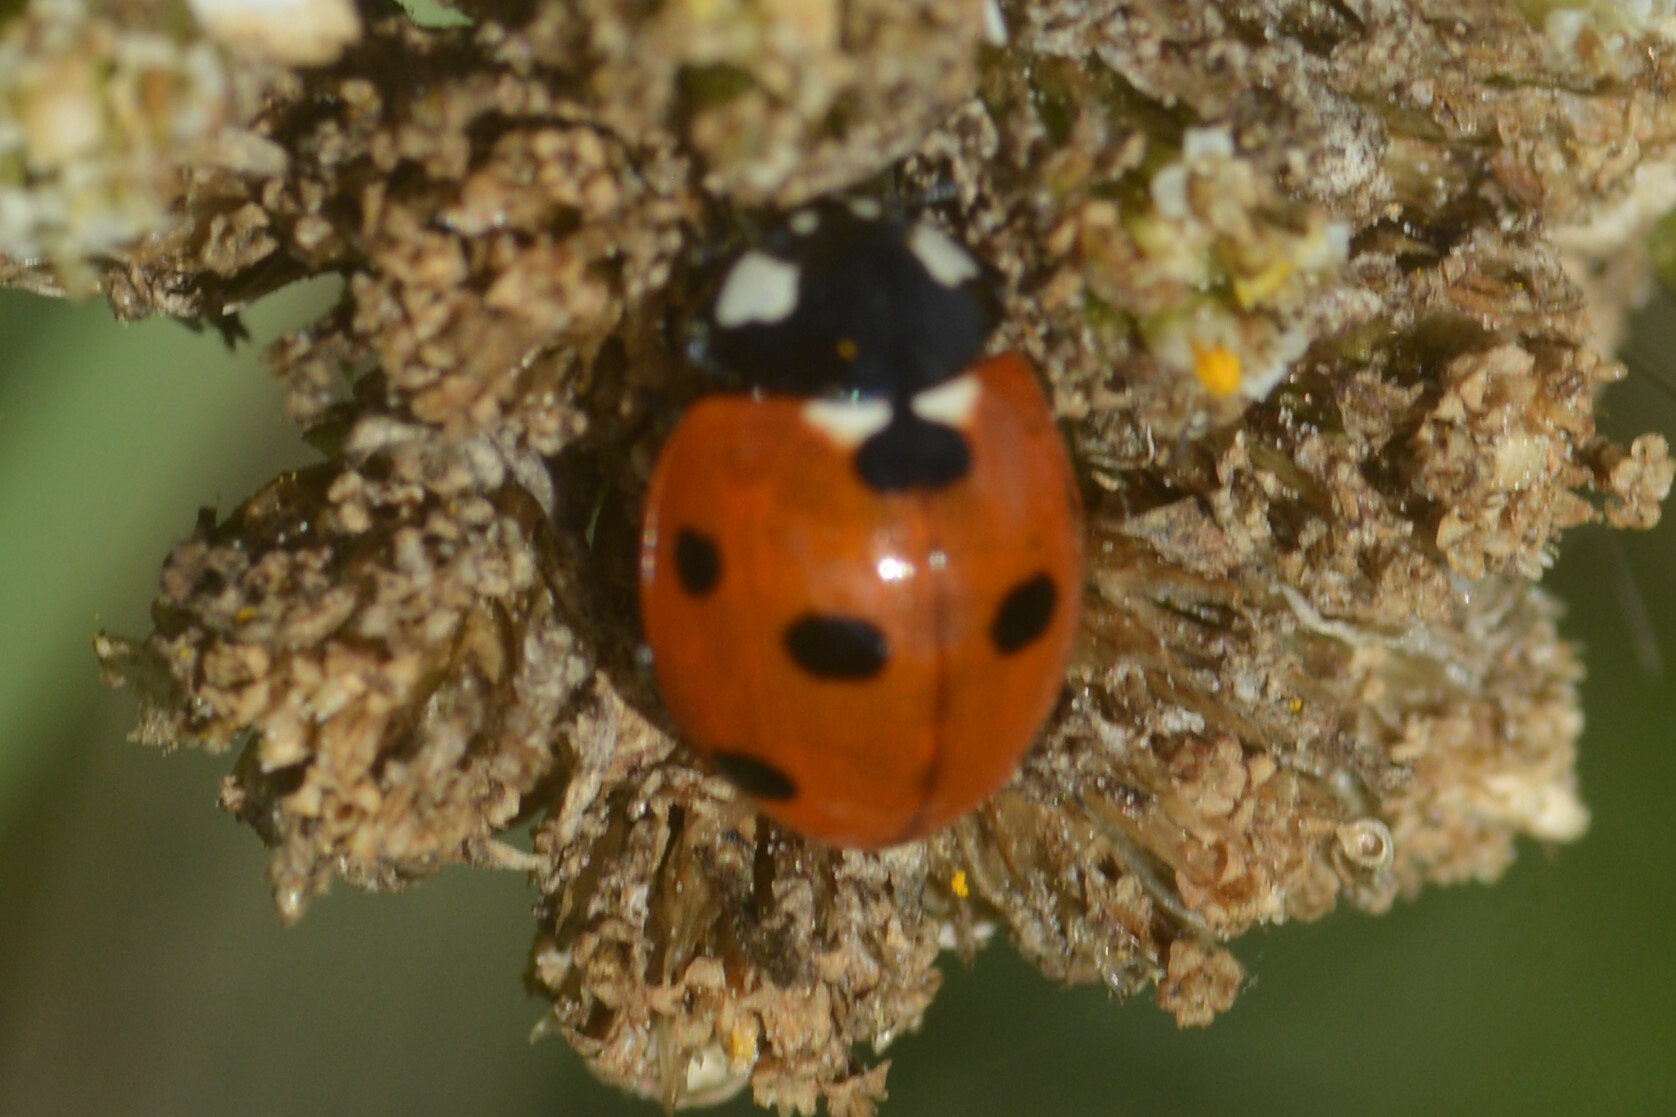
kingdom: Animalia
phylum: Arthropoda
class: Insecta
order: Coleoptera
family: Coccinellidae
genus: Coccinella
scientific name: Coccinella septempunctata
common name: Sevenspotted lady beetle
